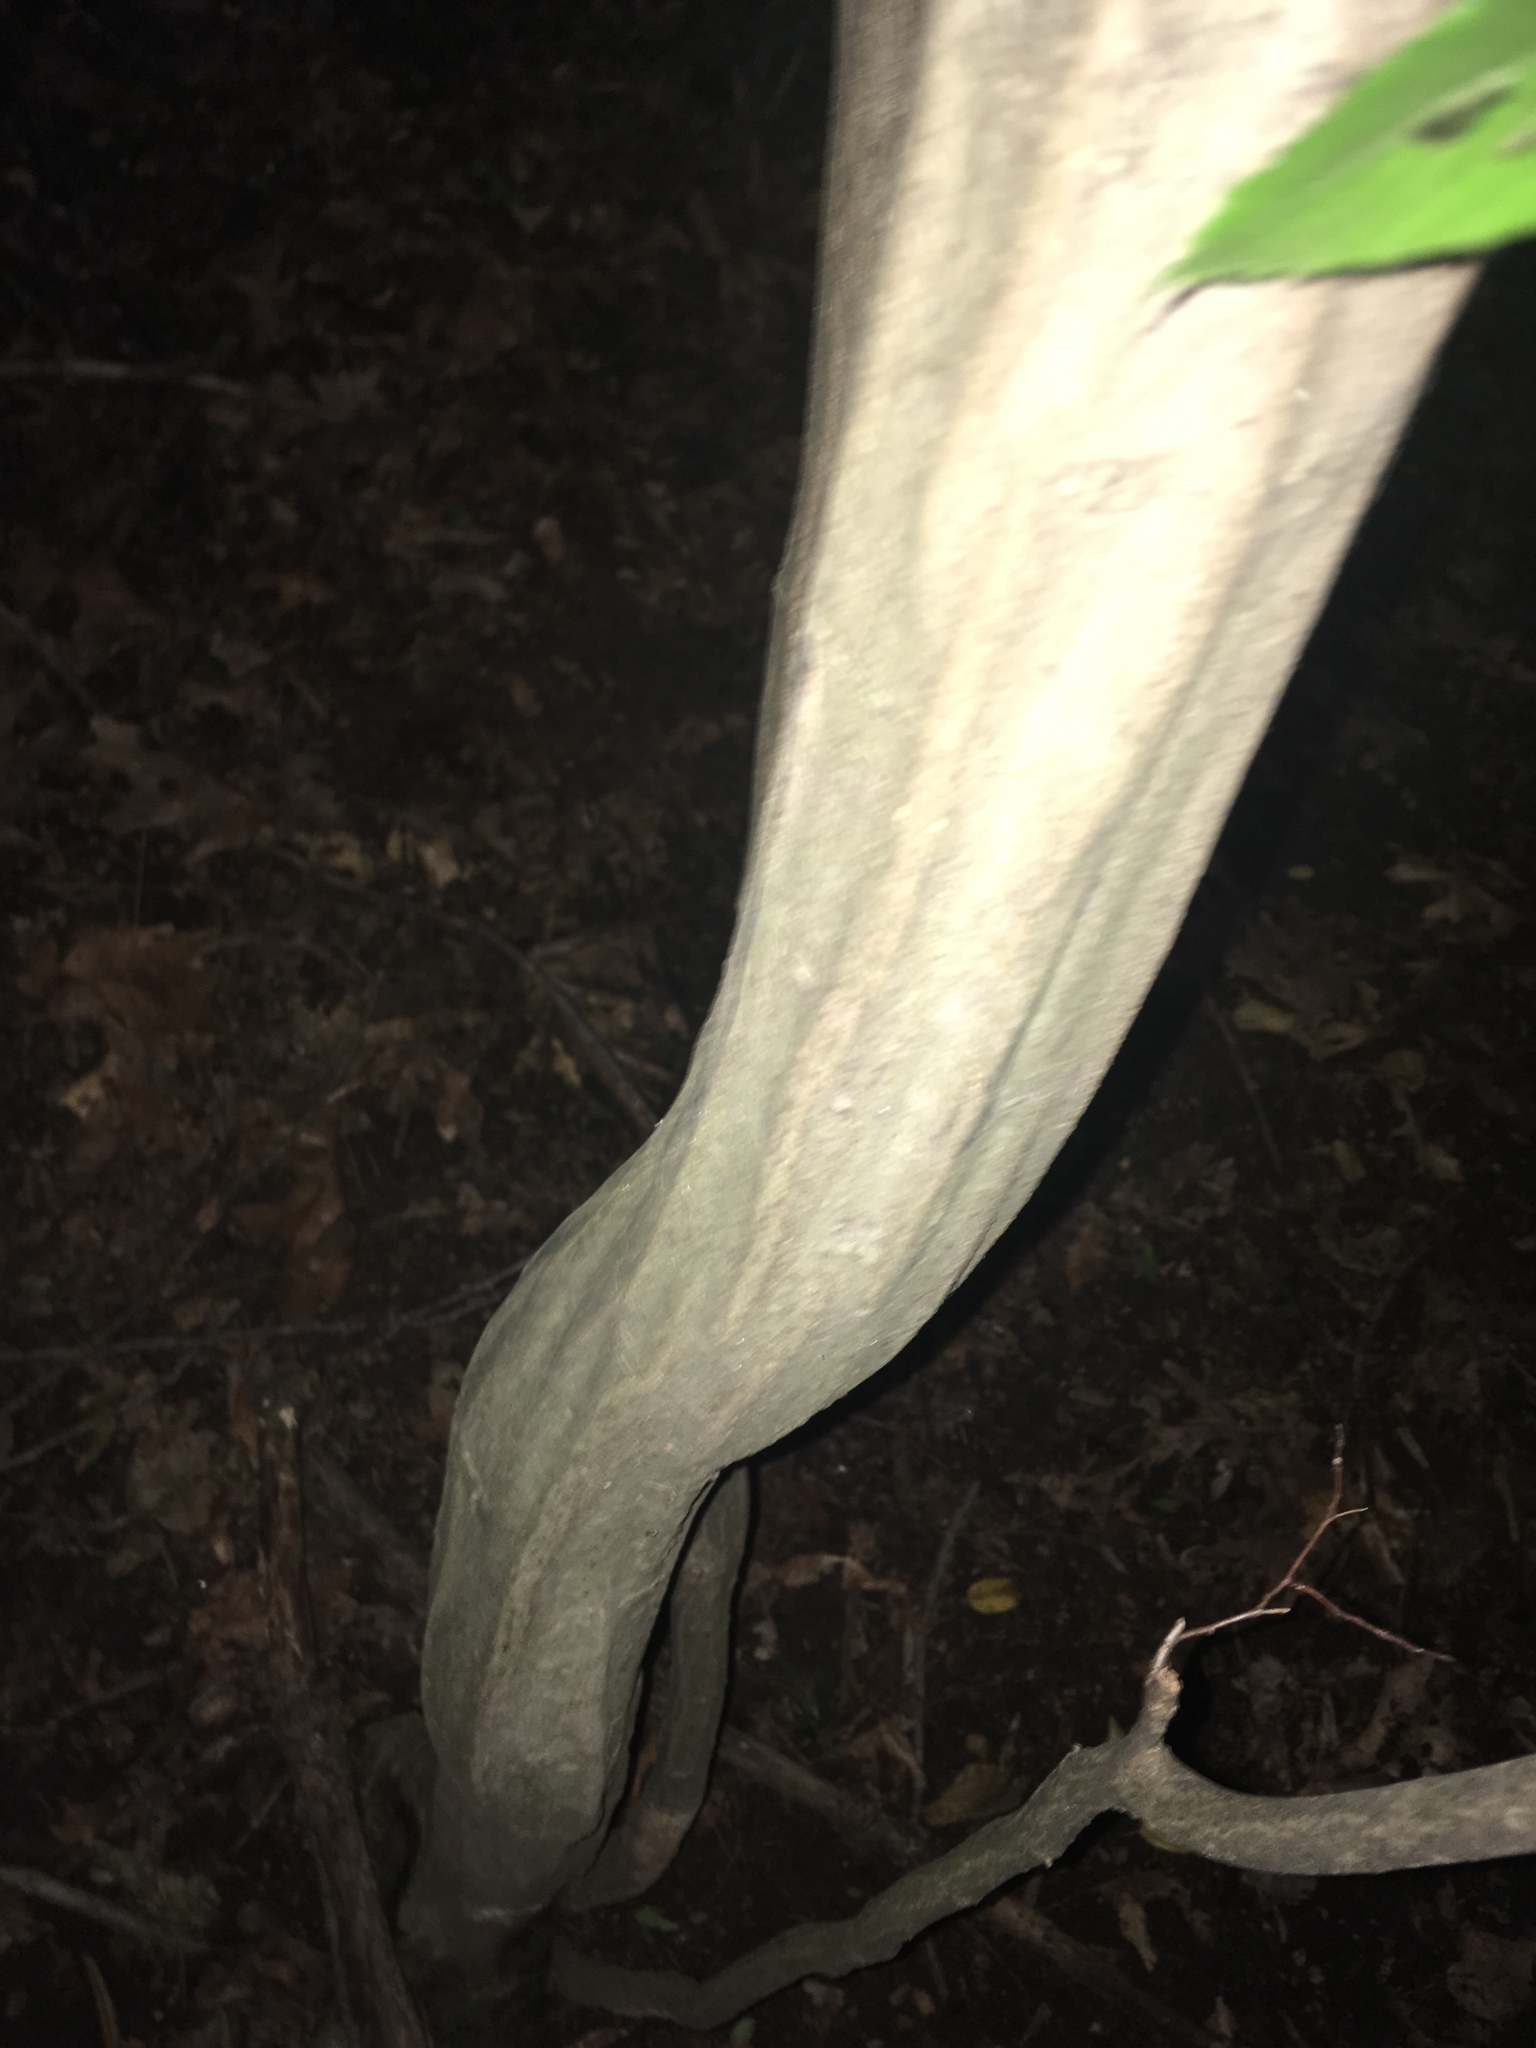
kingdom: Plantae
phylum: Tracheophyta
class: Magnoliopsida
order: Fagales
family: Betulaceae
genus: Carpinus
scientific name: Carpinus caroliniana
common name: American hornbeam
